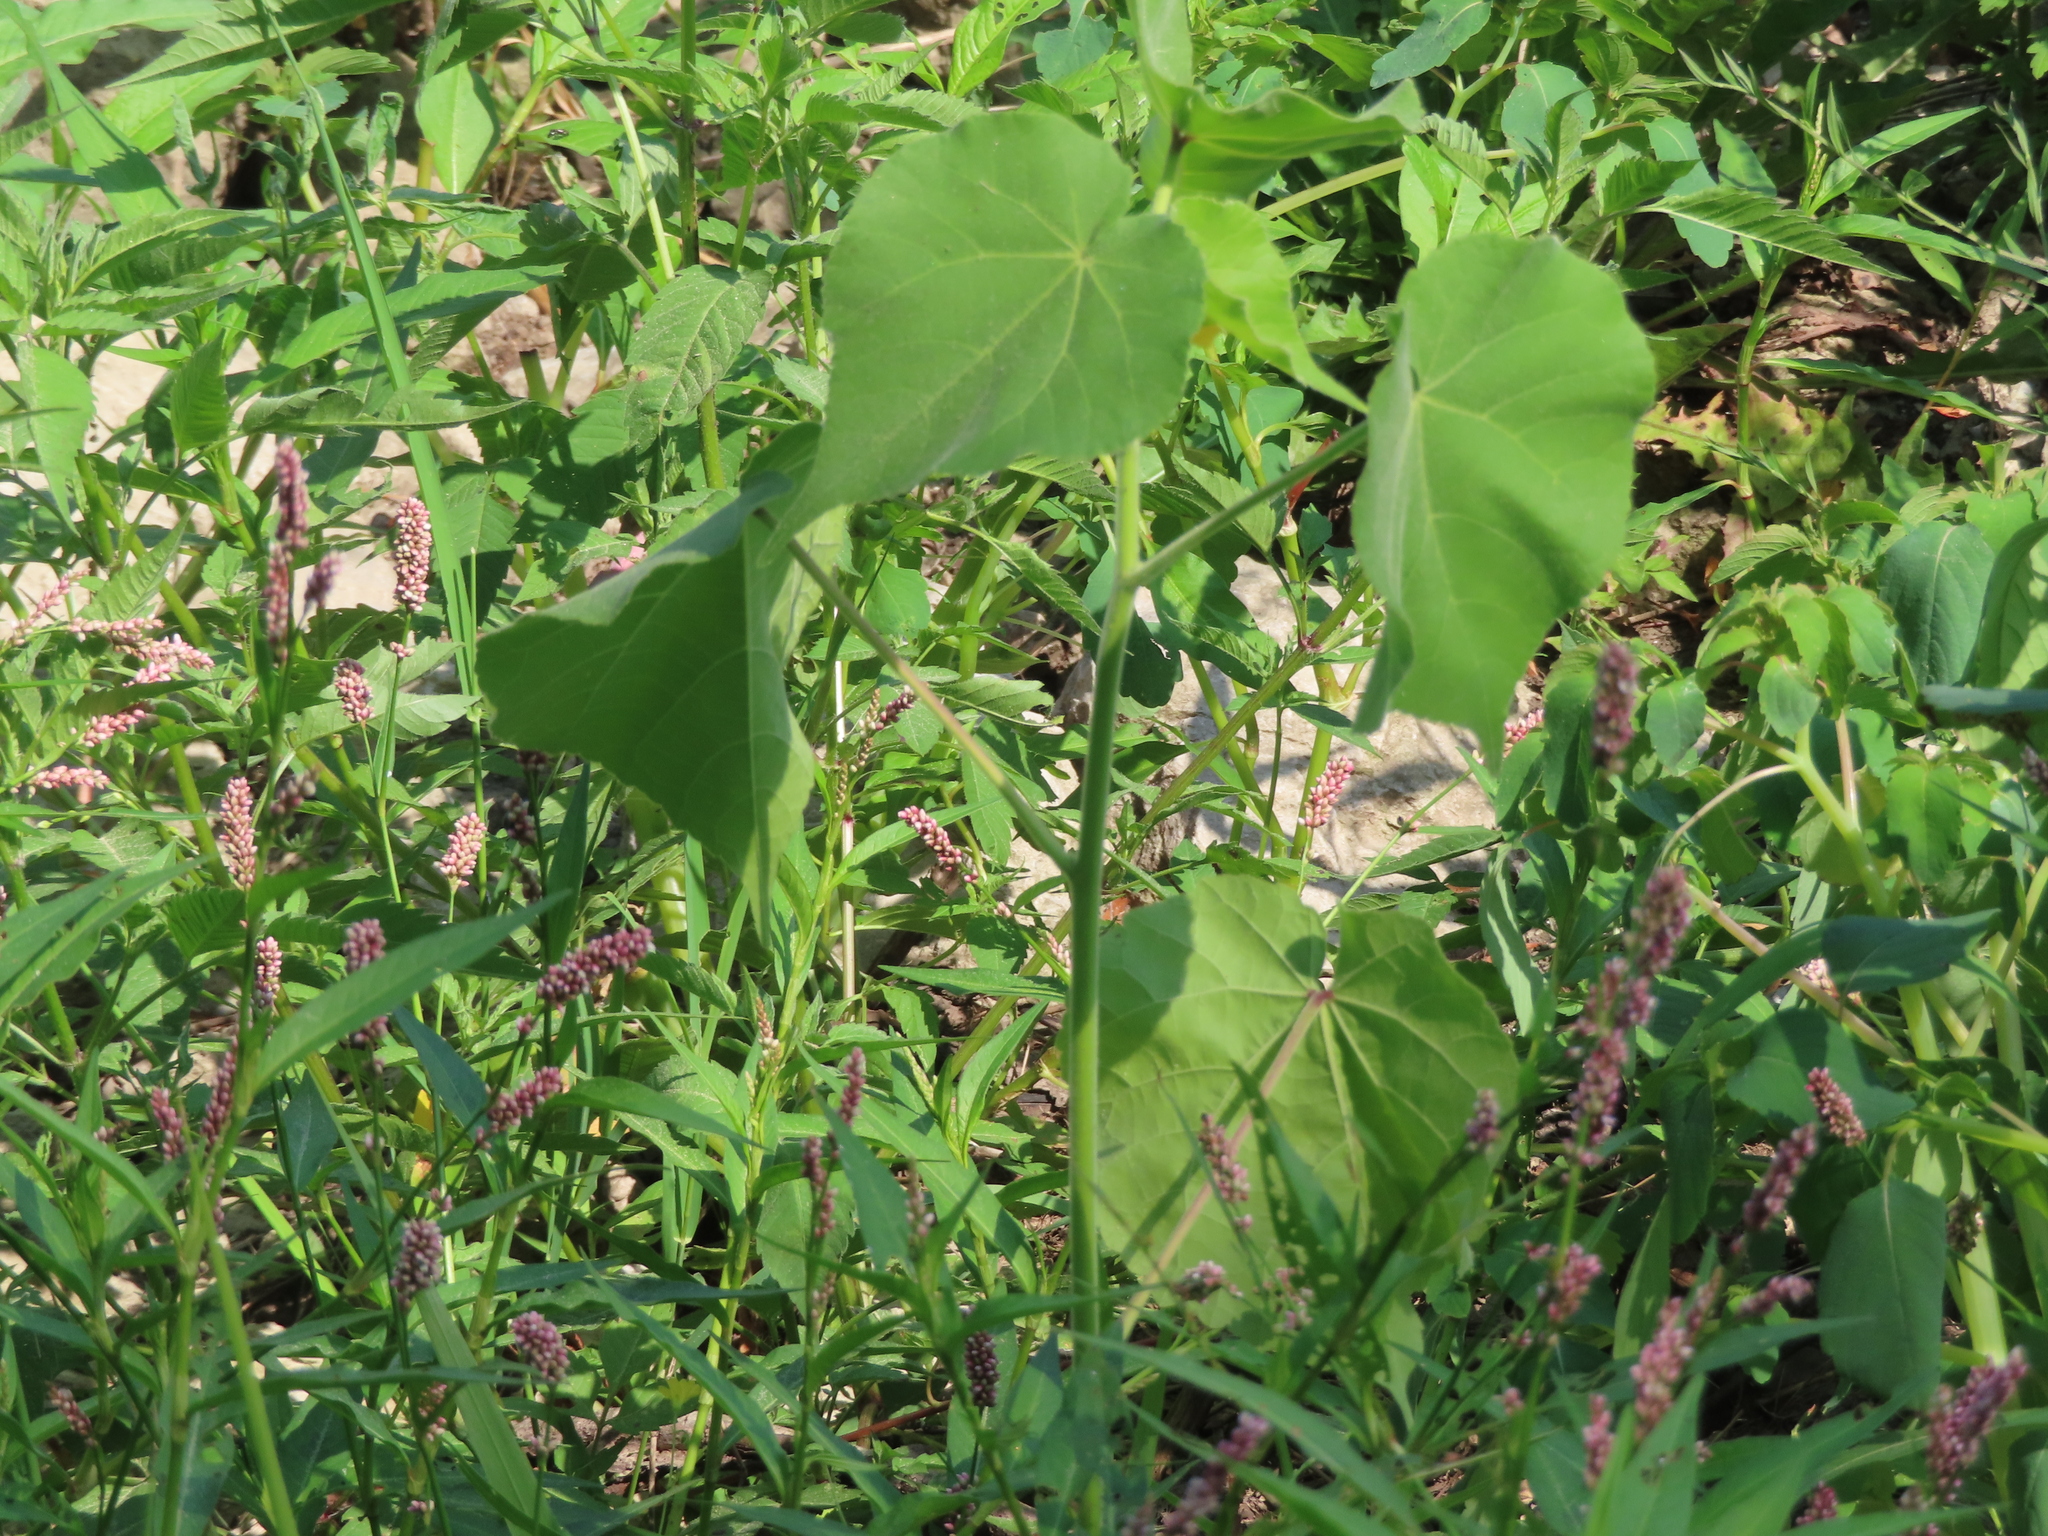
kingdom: Plantae
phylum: Tracheophyta
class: Magnoliopsida
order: Malvales
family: Malvaceae
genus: Abutilon
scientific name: Abutilon theophrasti
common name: Velvetleaf
